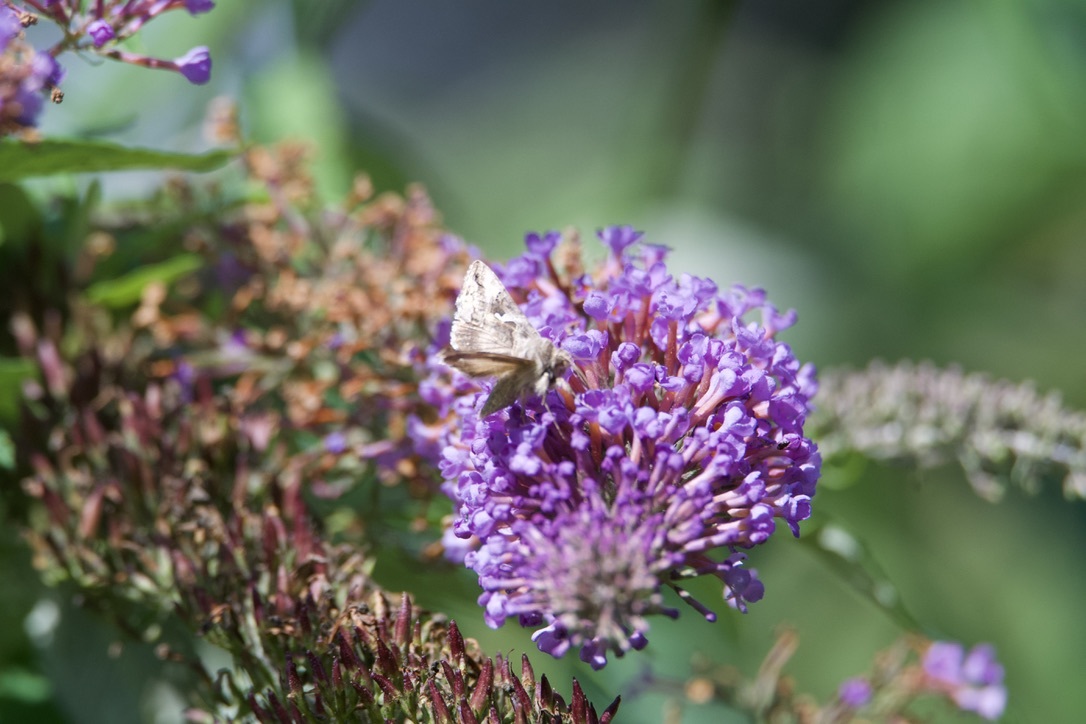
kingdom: Animalia
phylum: Arthropoda
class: Insecta
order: Lepidoptera
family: Noctuidae
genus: Autographa
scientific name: Autographa gamma
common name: Silver y
